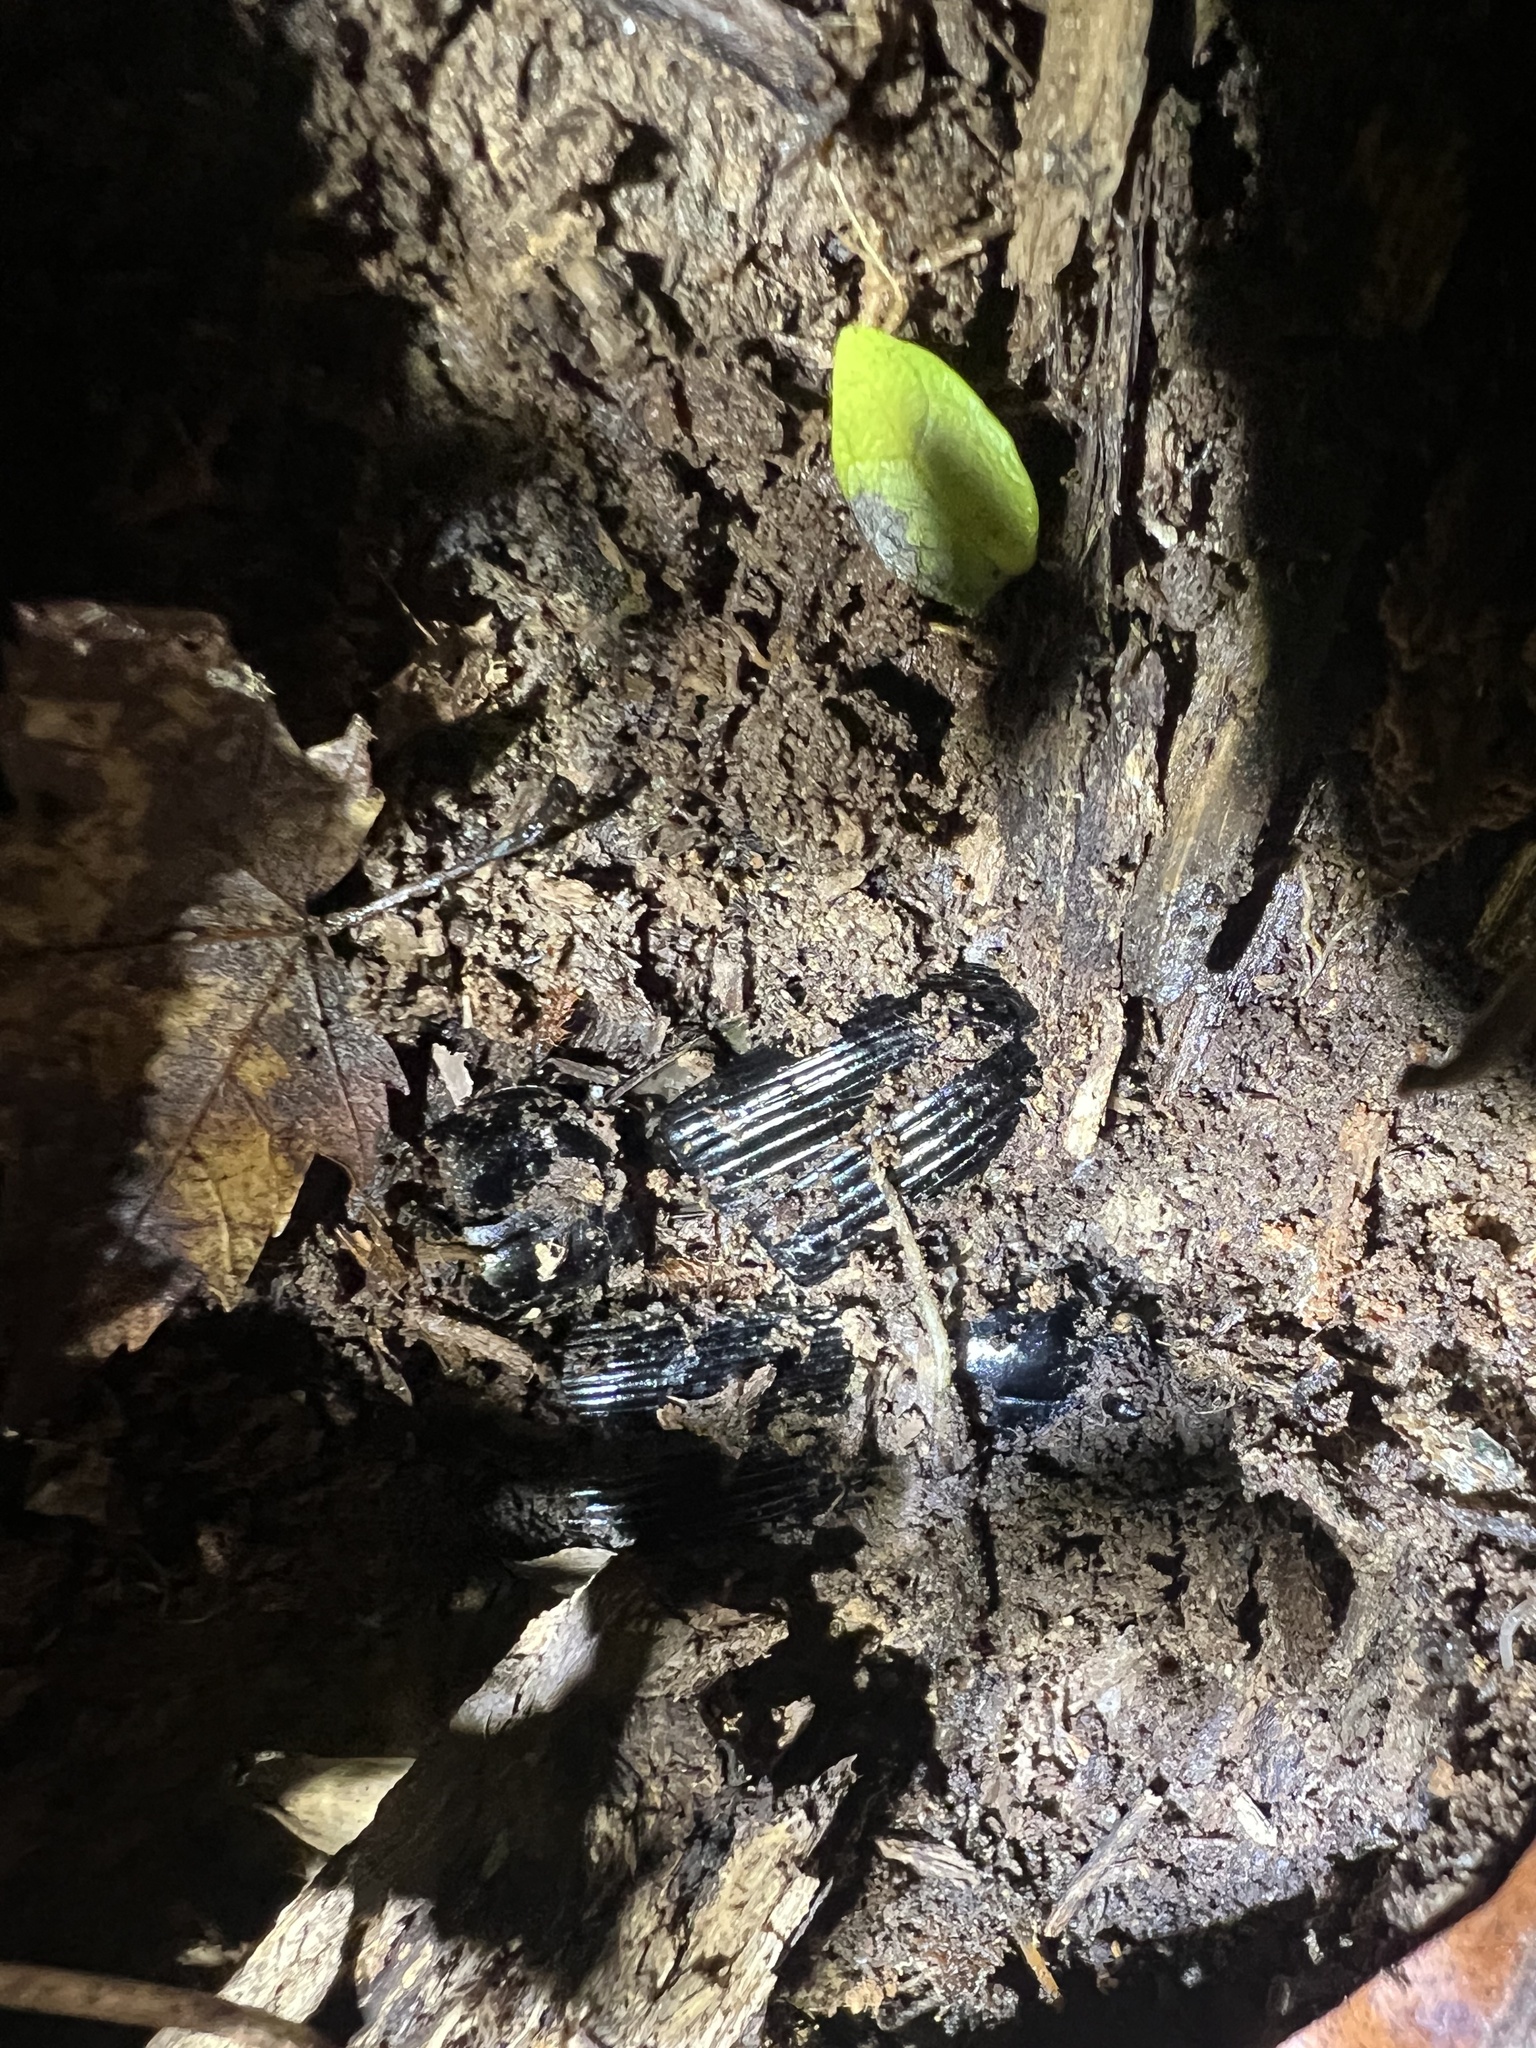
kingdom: Animalia
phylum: Arthropoda
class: Insecta
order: Coleoptera
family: Passalidae
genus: Odontotaenius
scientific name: Odontotaenius disjunctus
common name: Patent leather beetle
